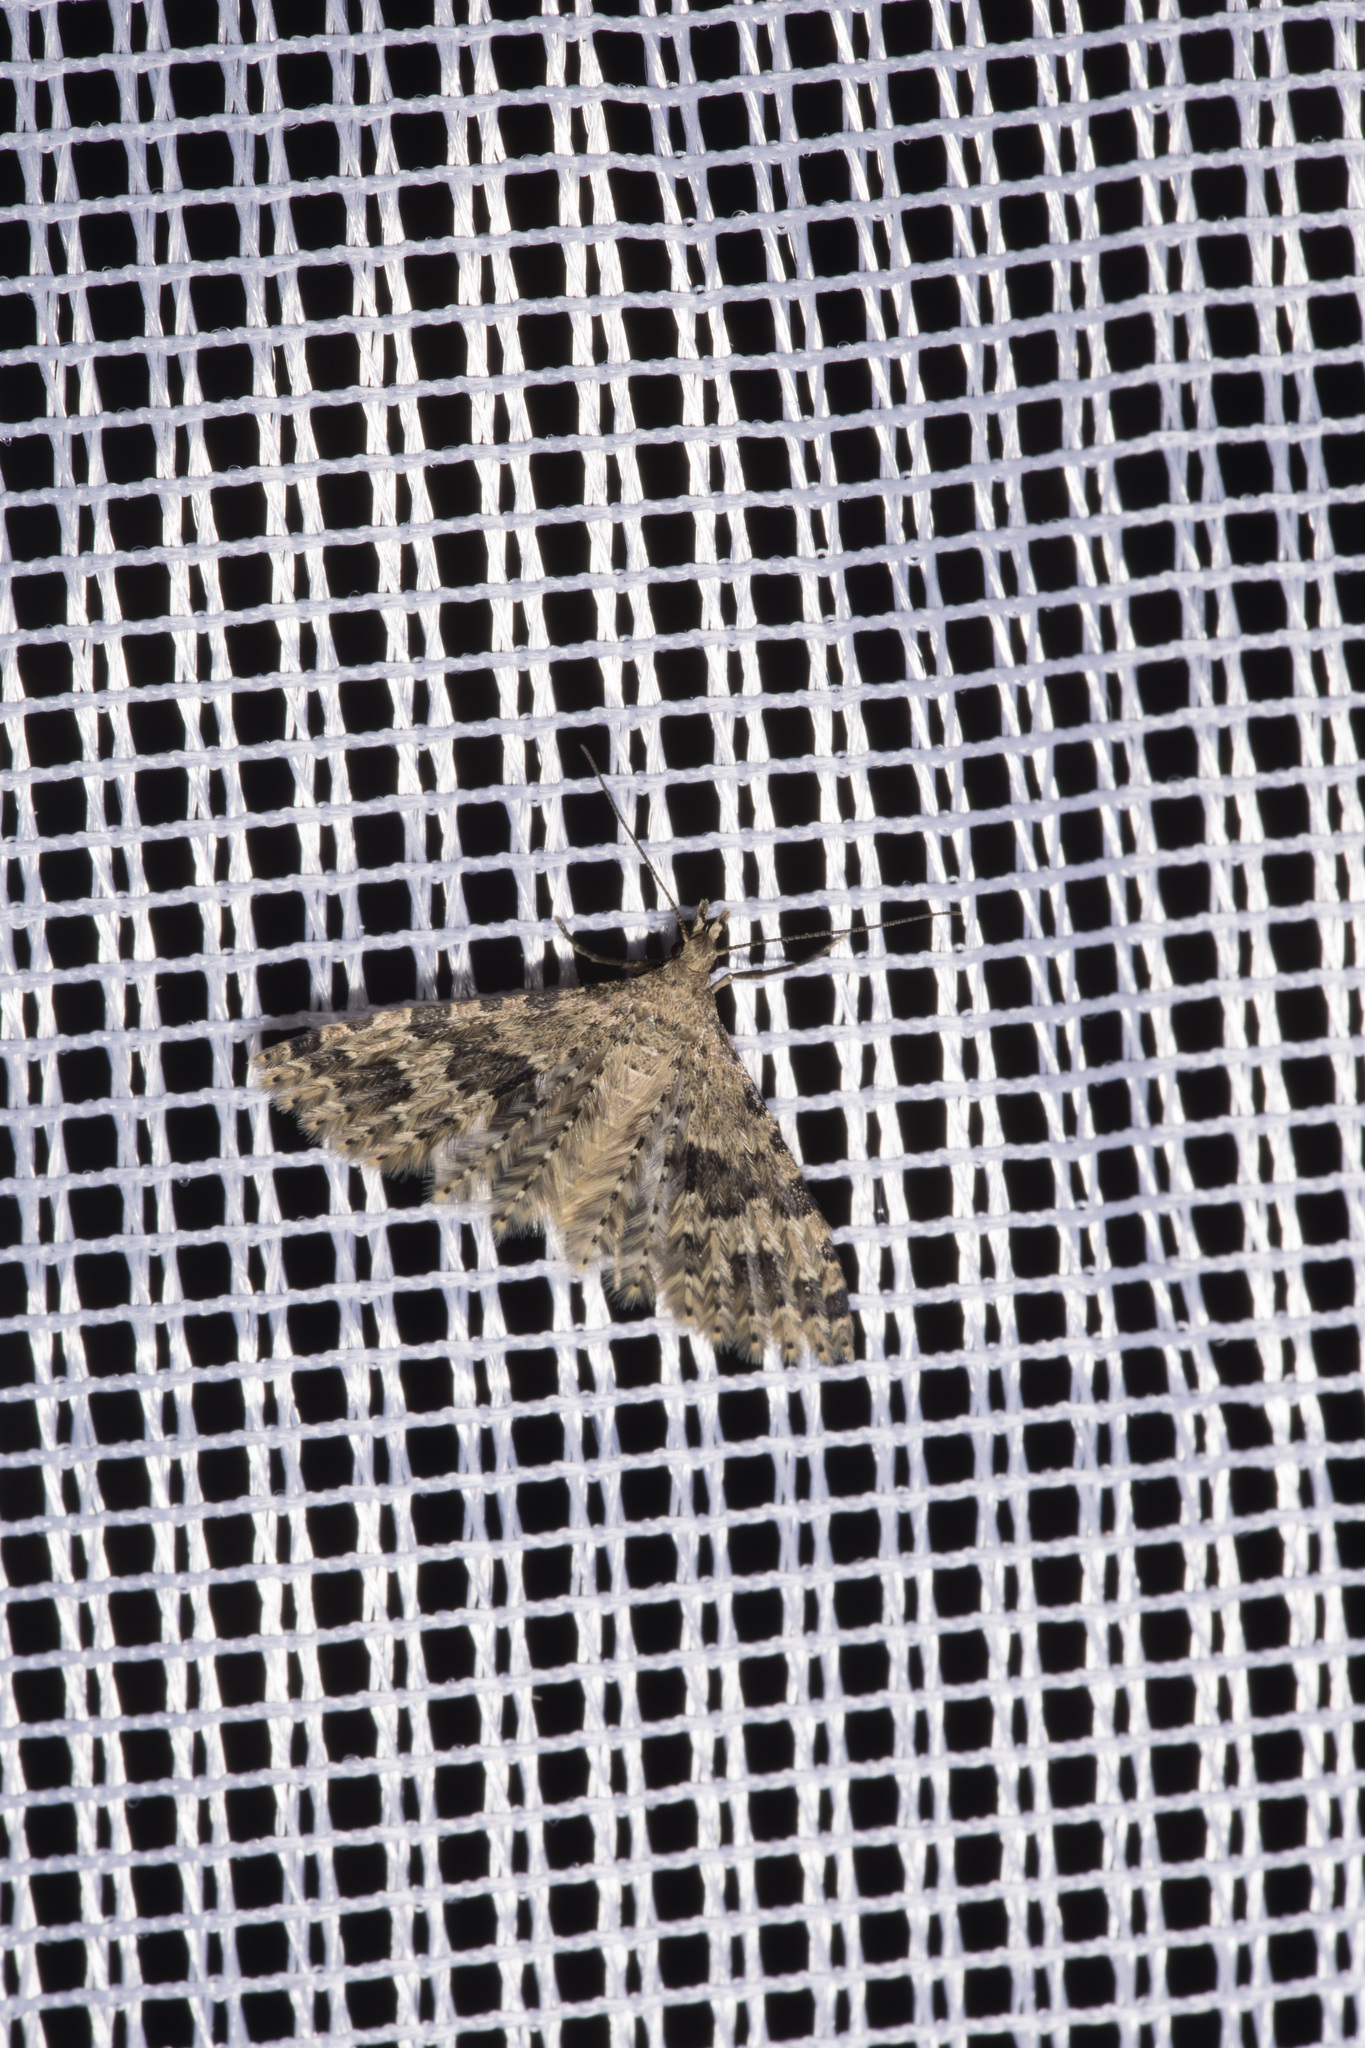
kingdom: Animalia
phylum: Arthropoda
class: Insecta
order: Lepidoptera
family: Alucitidae
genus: Alucita
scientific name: Alucita hexadactyla
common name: Twenty-plume moth
